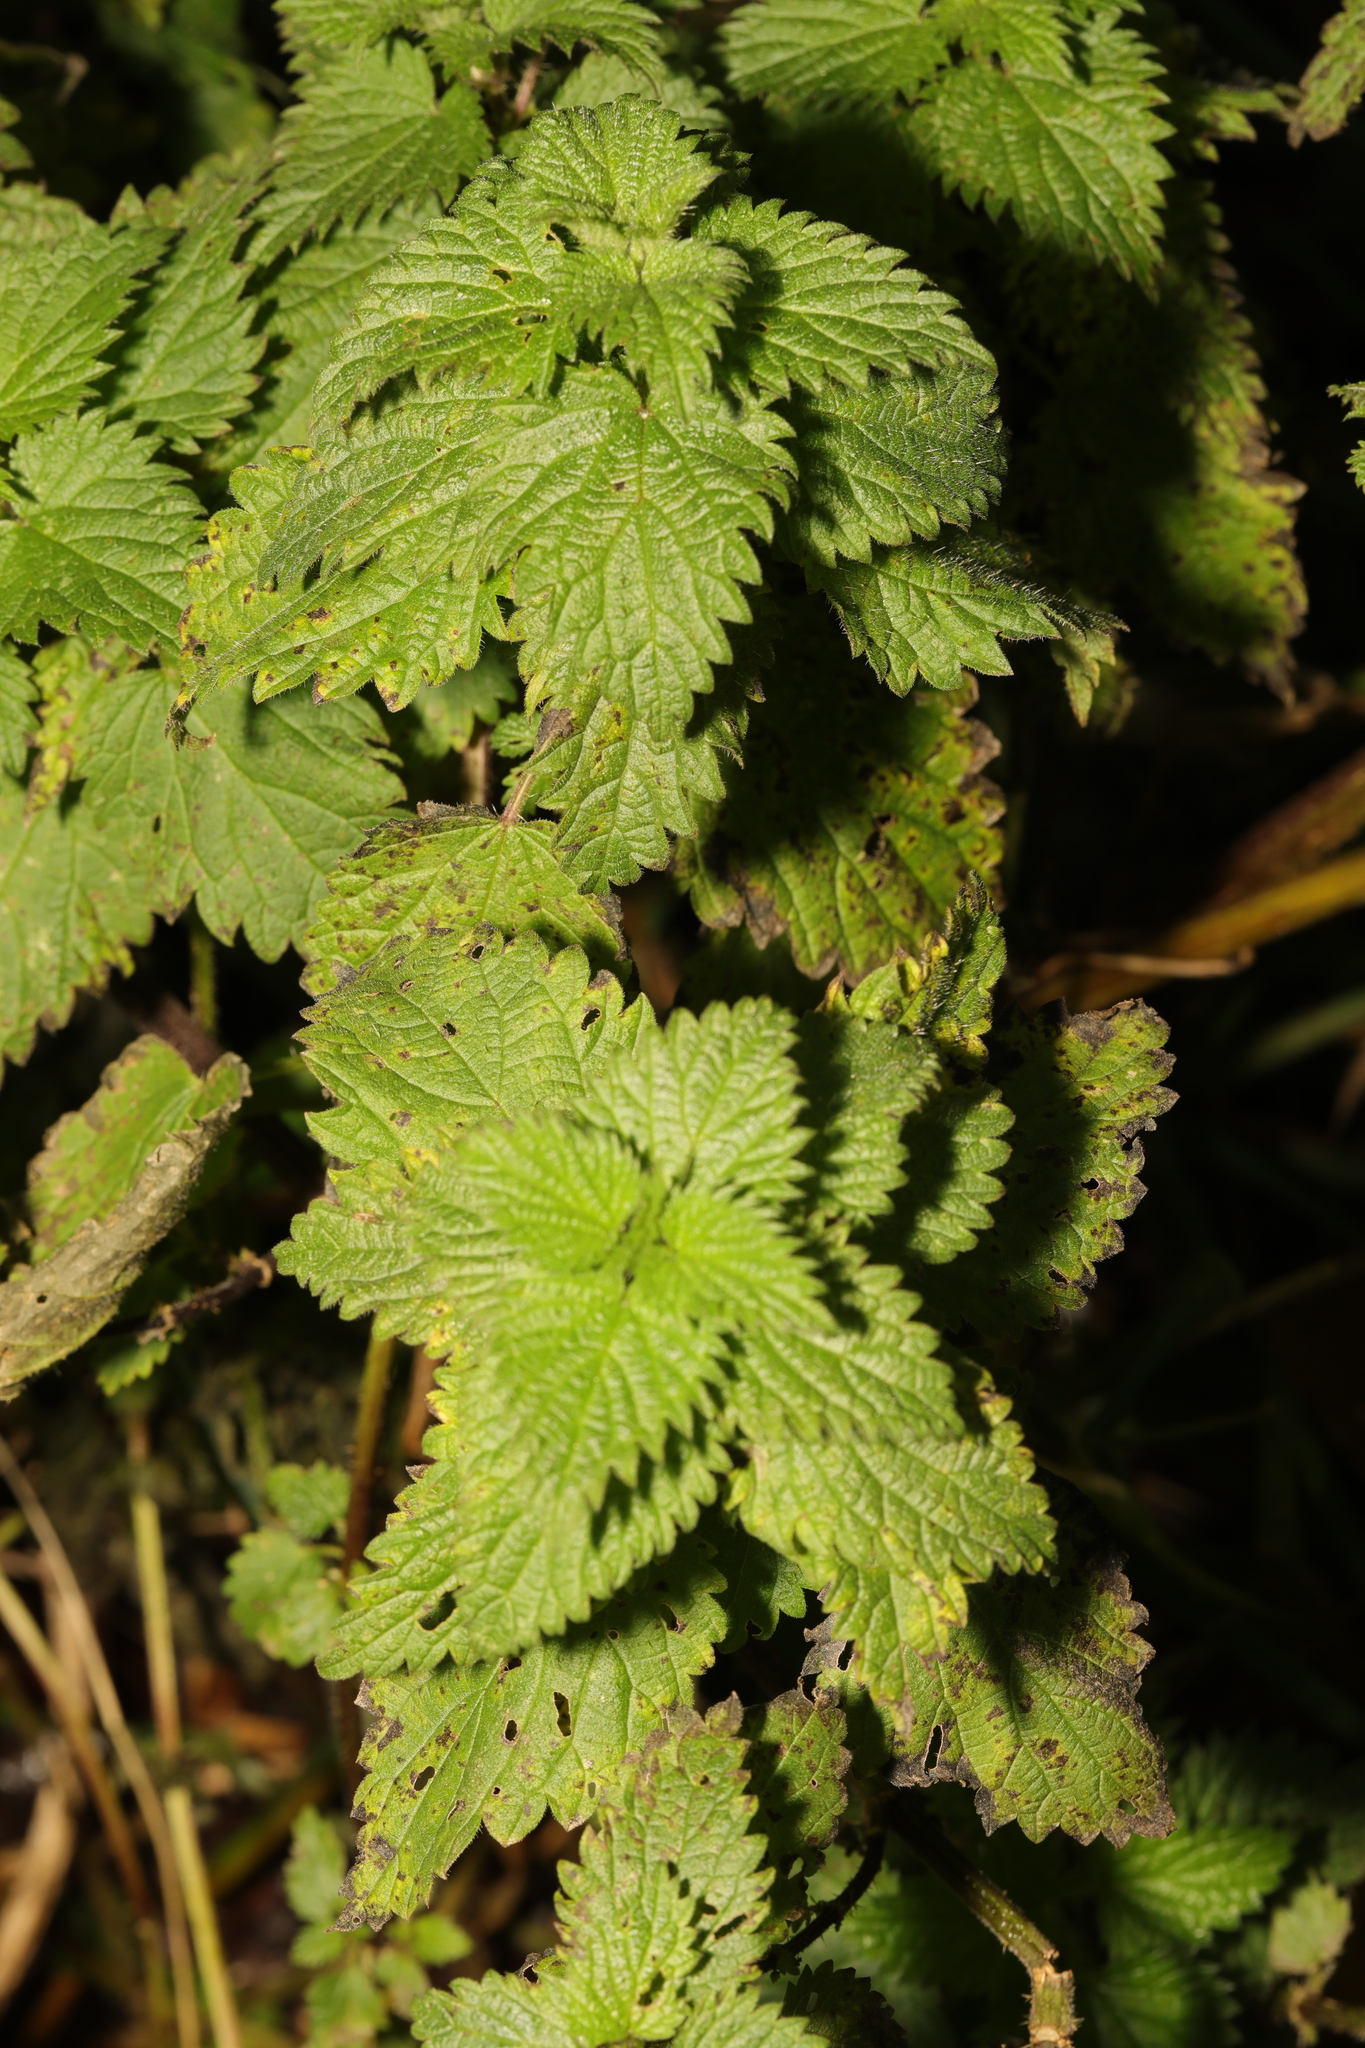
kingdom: Plantae
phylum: Tracheophyta
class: Magnoliopsida
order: Rosales
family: Urticaceae
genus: Urtica
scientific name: Urtica dioica
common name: Common nettle
